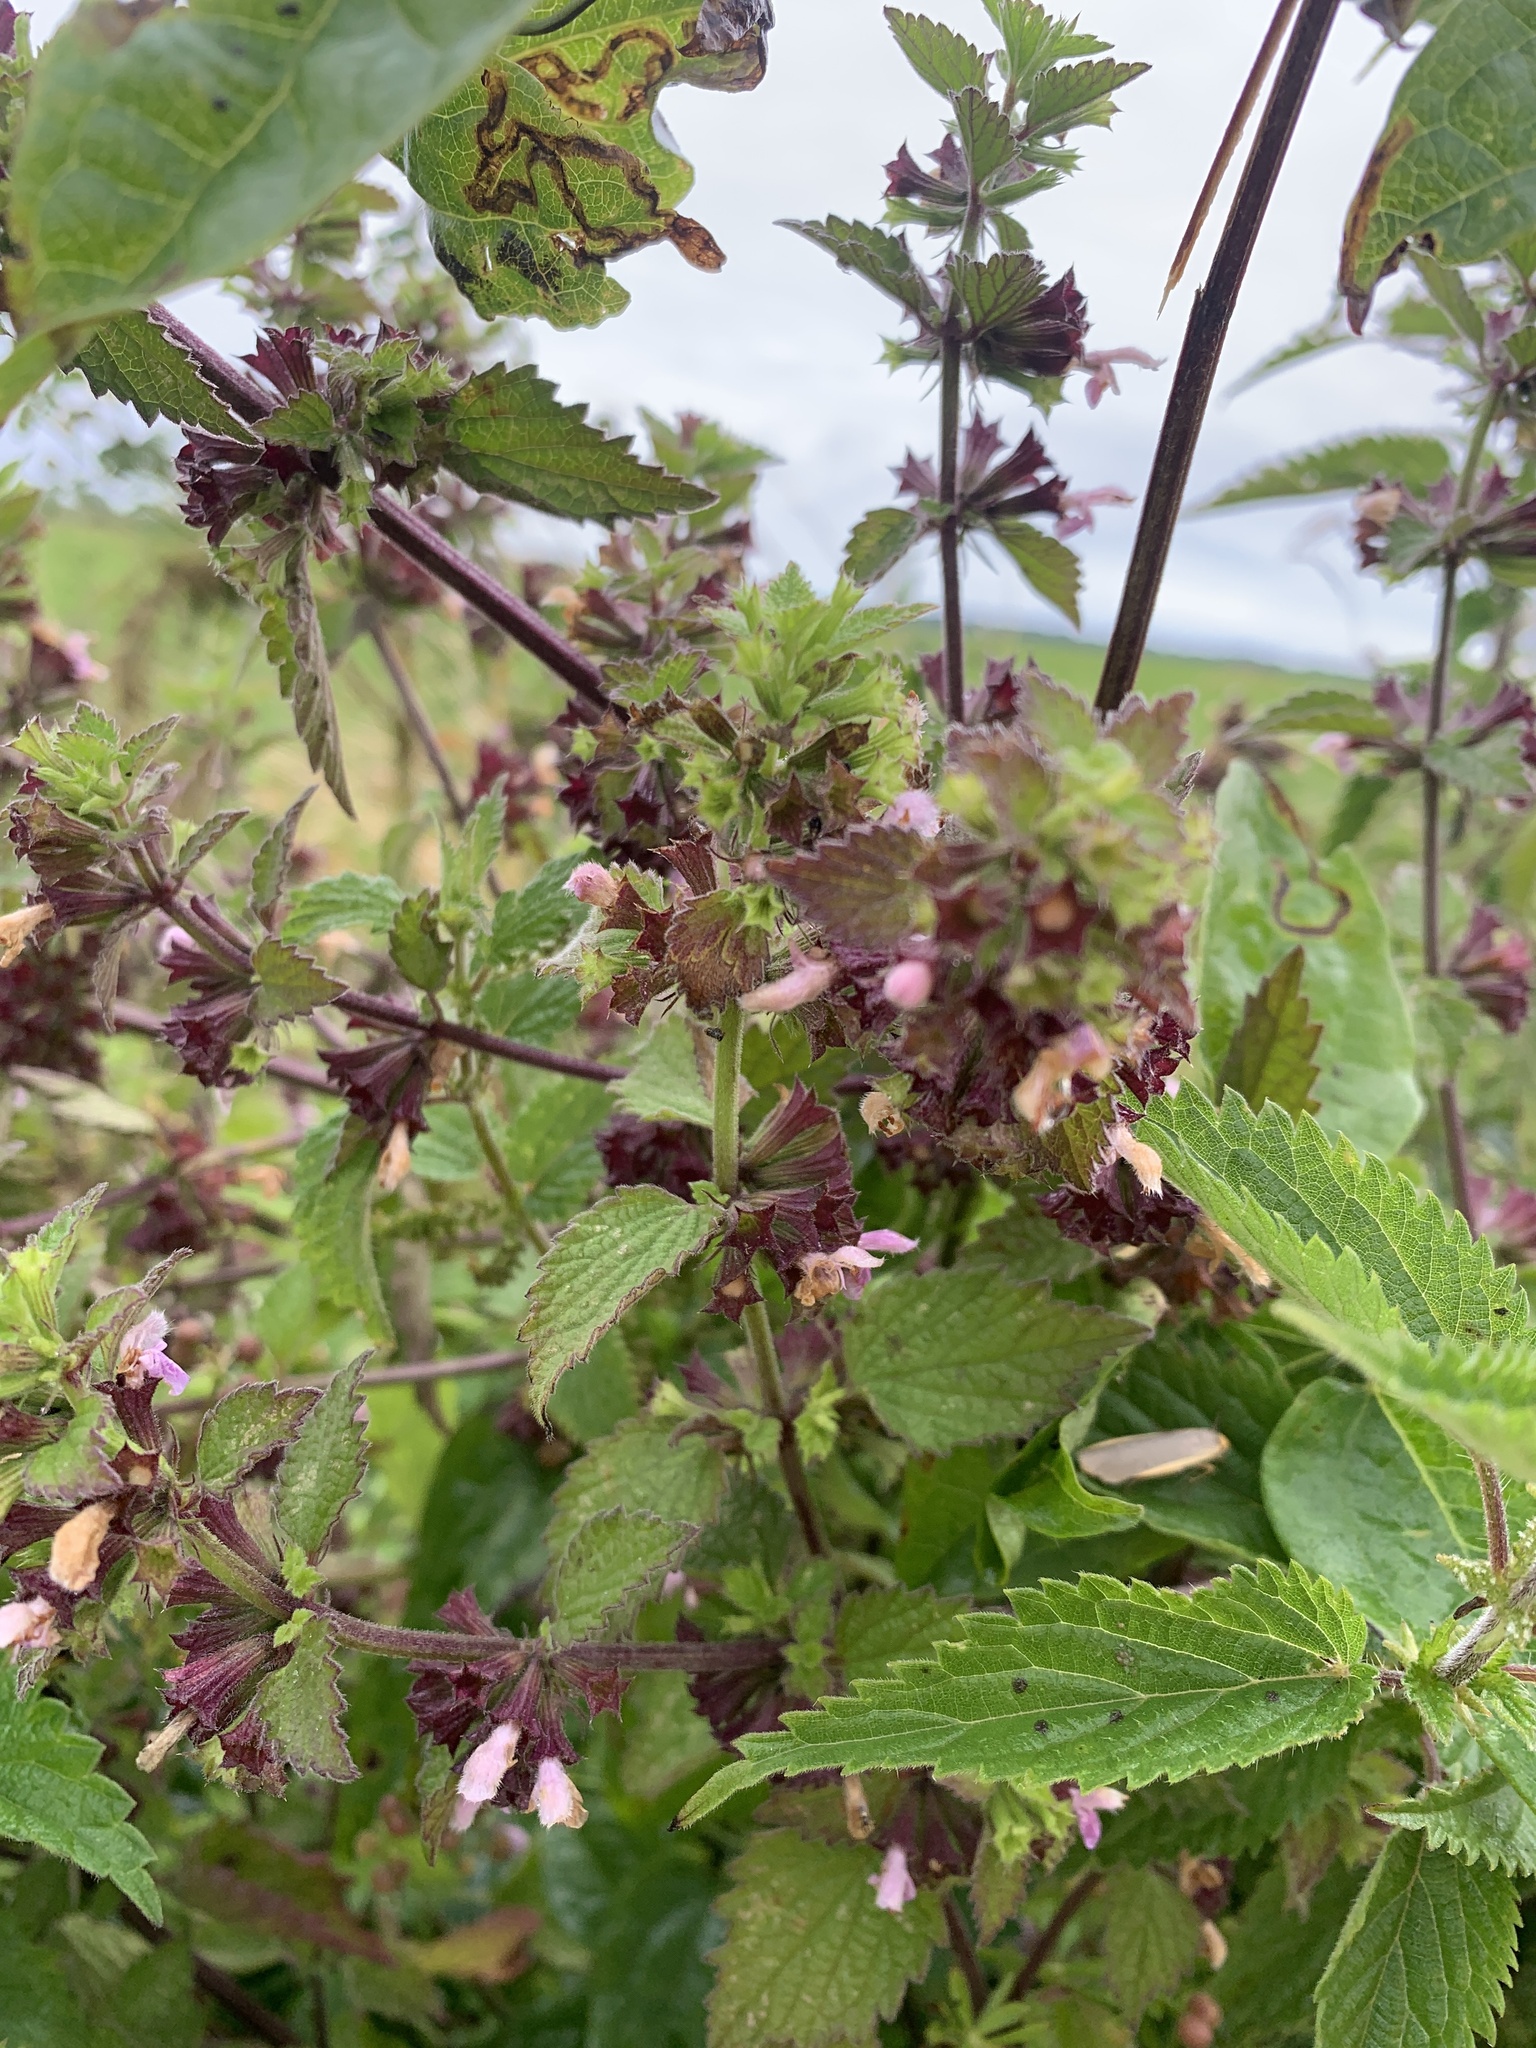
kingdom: Plantae
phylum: Tracheophyta
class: Magnoliopsida
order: Lamiales
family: Lamiaceae
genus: Ballota
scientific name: Ballota nigra
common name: Black horehound
